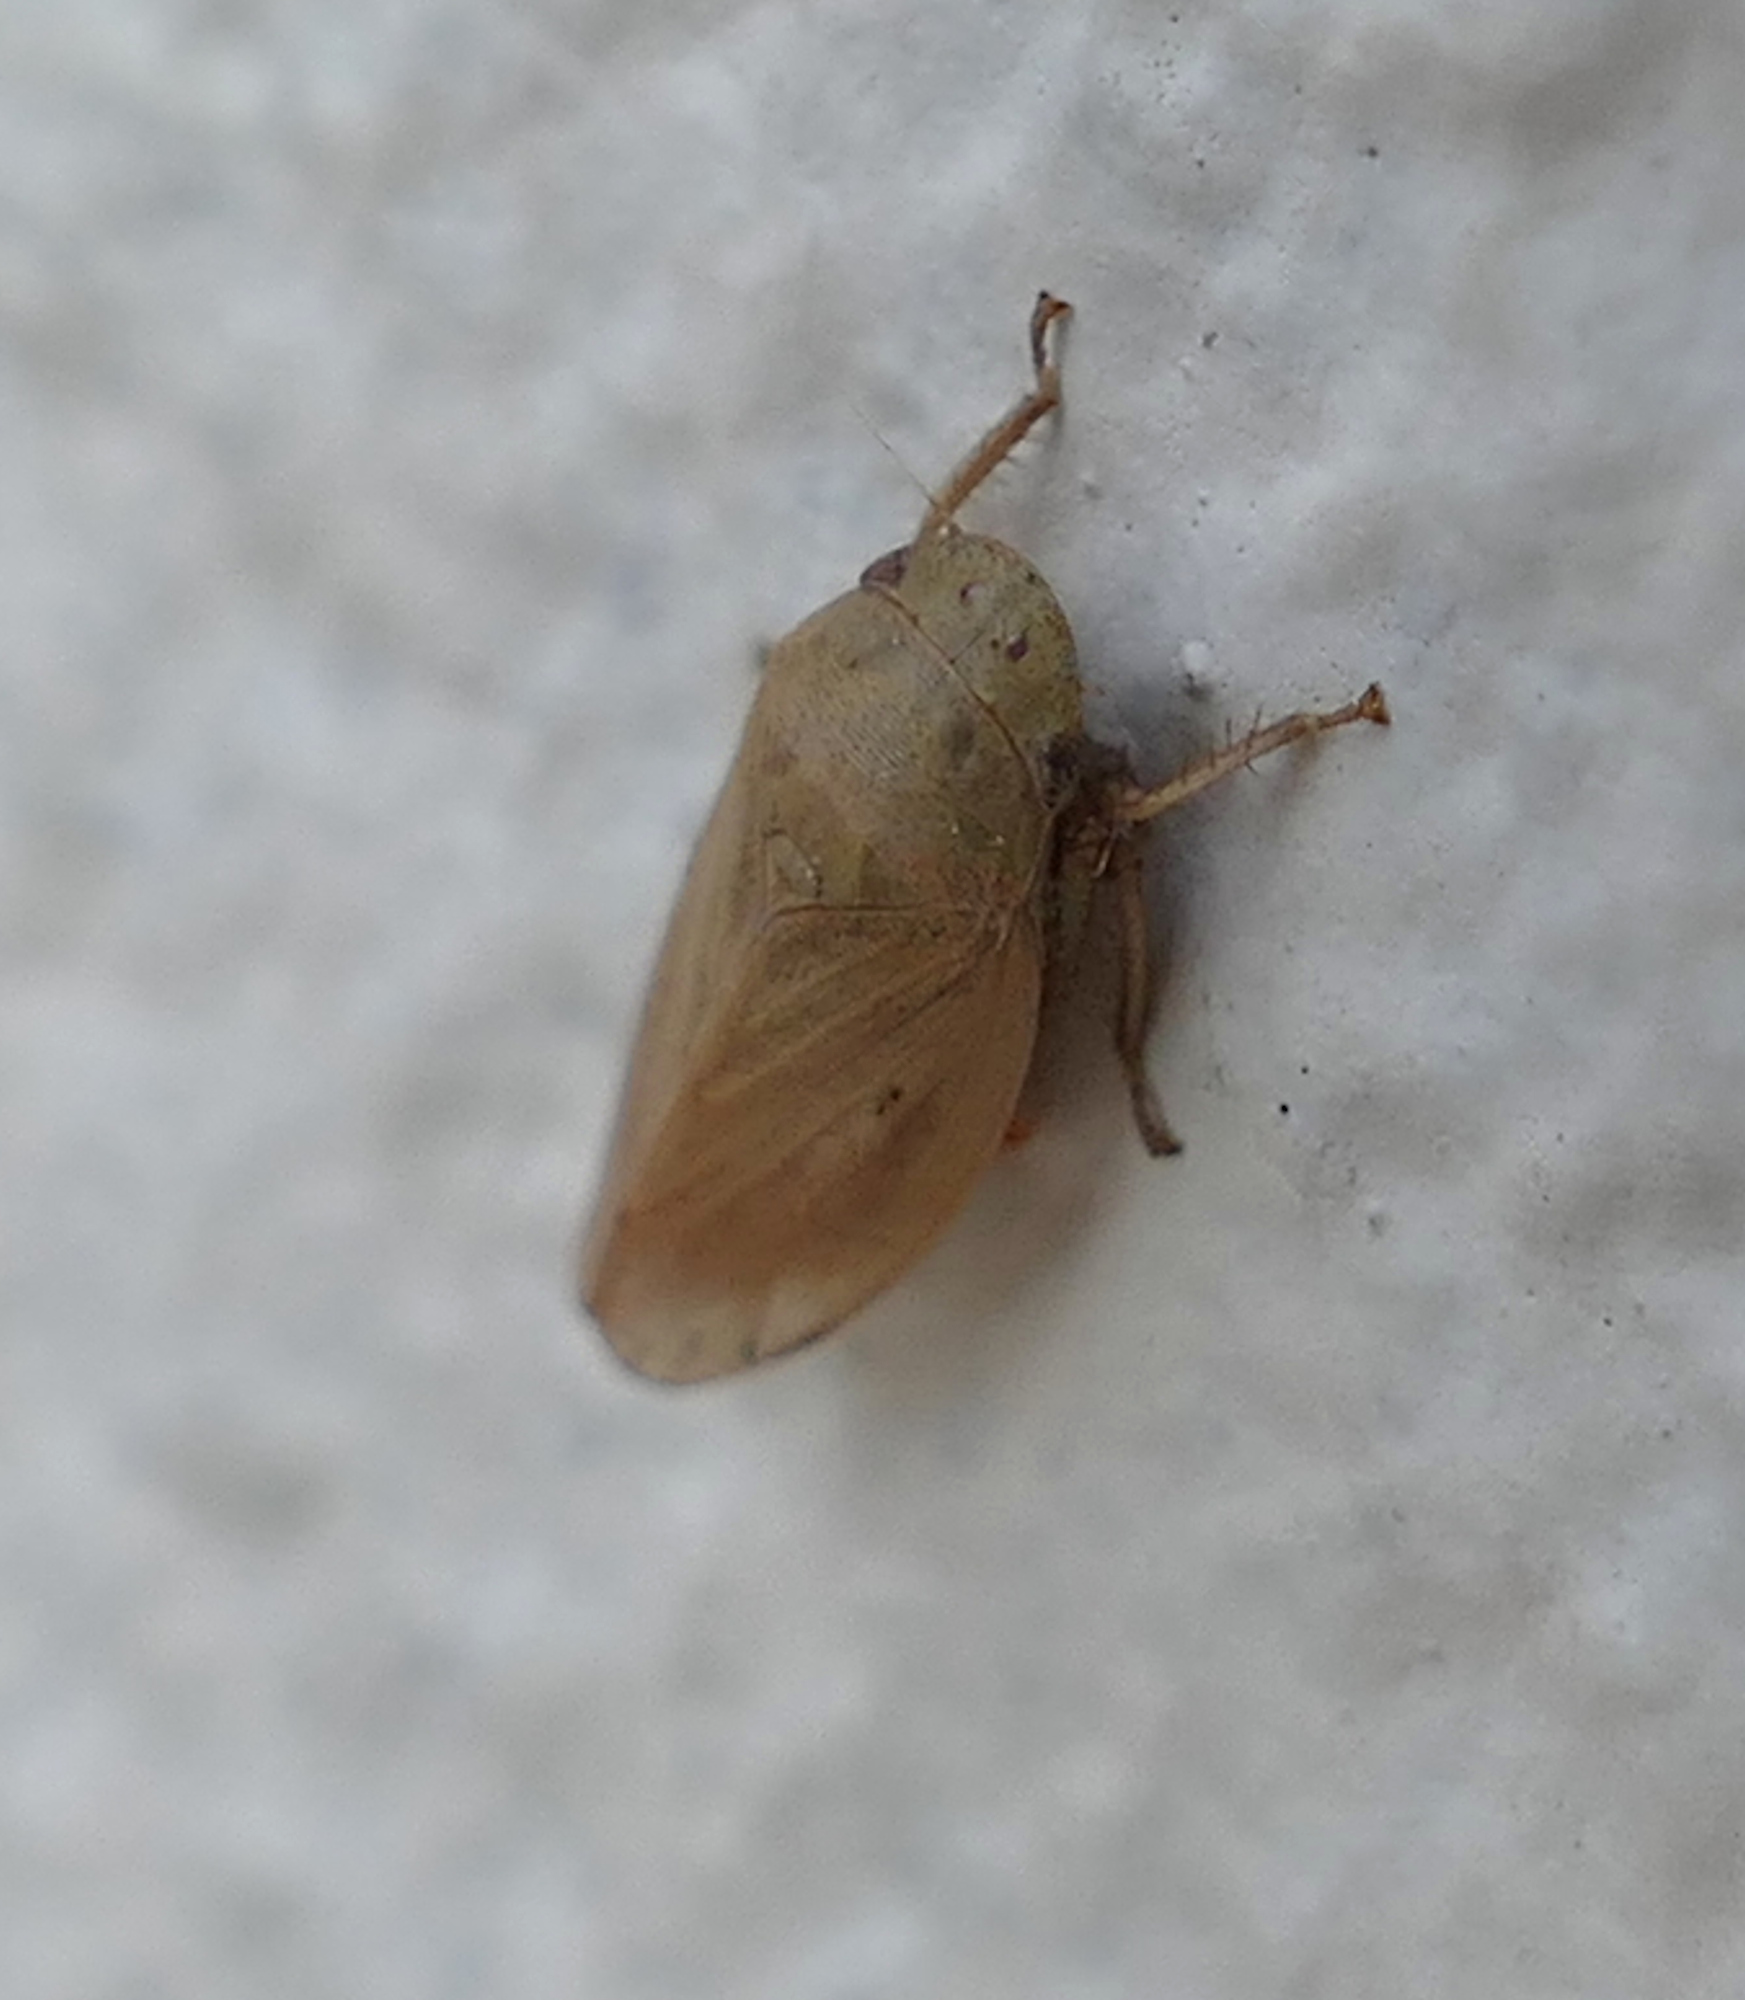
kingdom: Animalia
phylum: Arthropoda
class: Insecta
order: Hemiptera
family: Cicadellidae
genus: Negosiana
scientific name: Negosiana dualis
